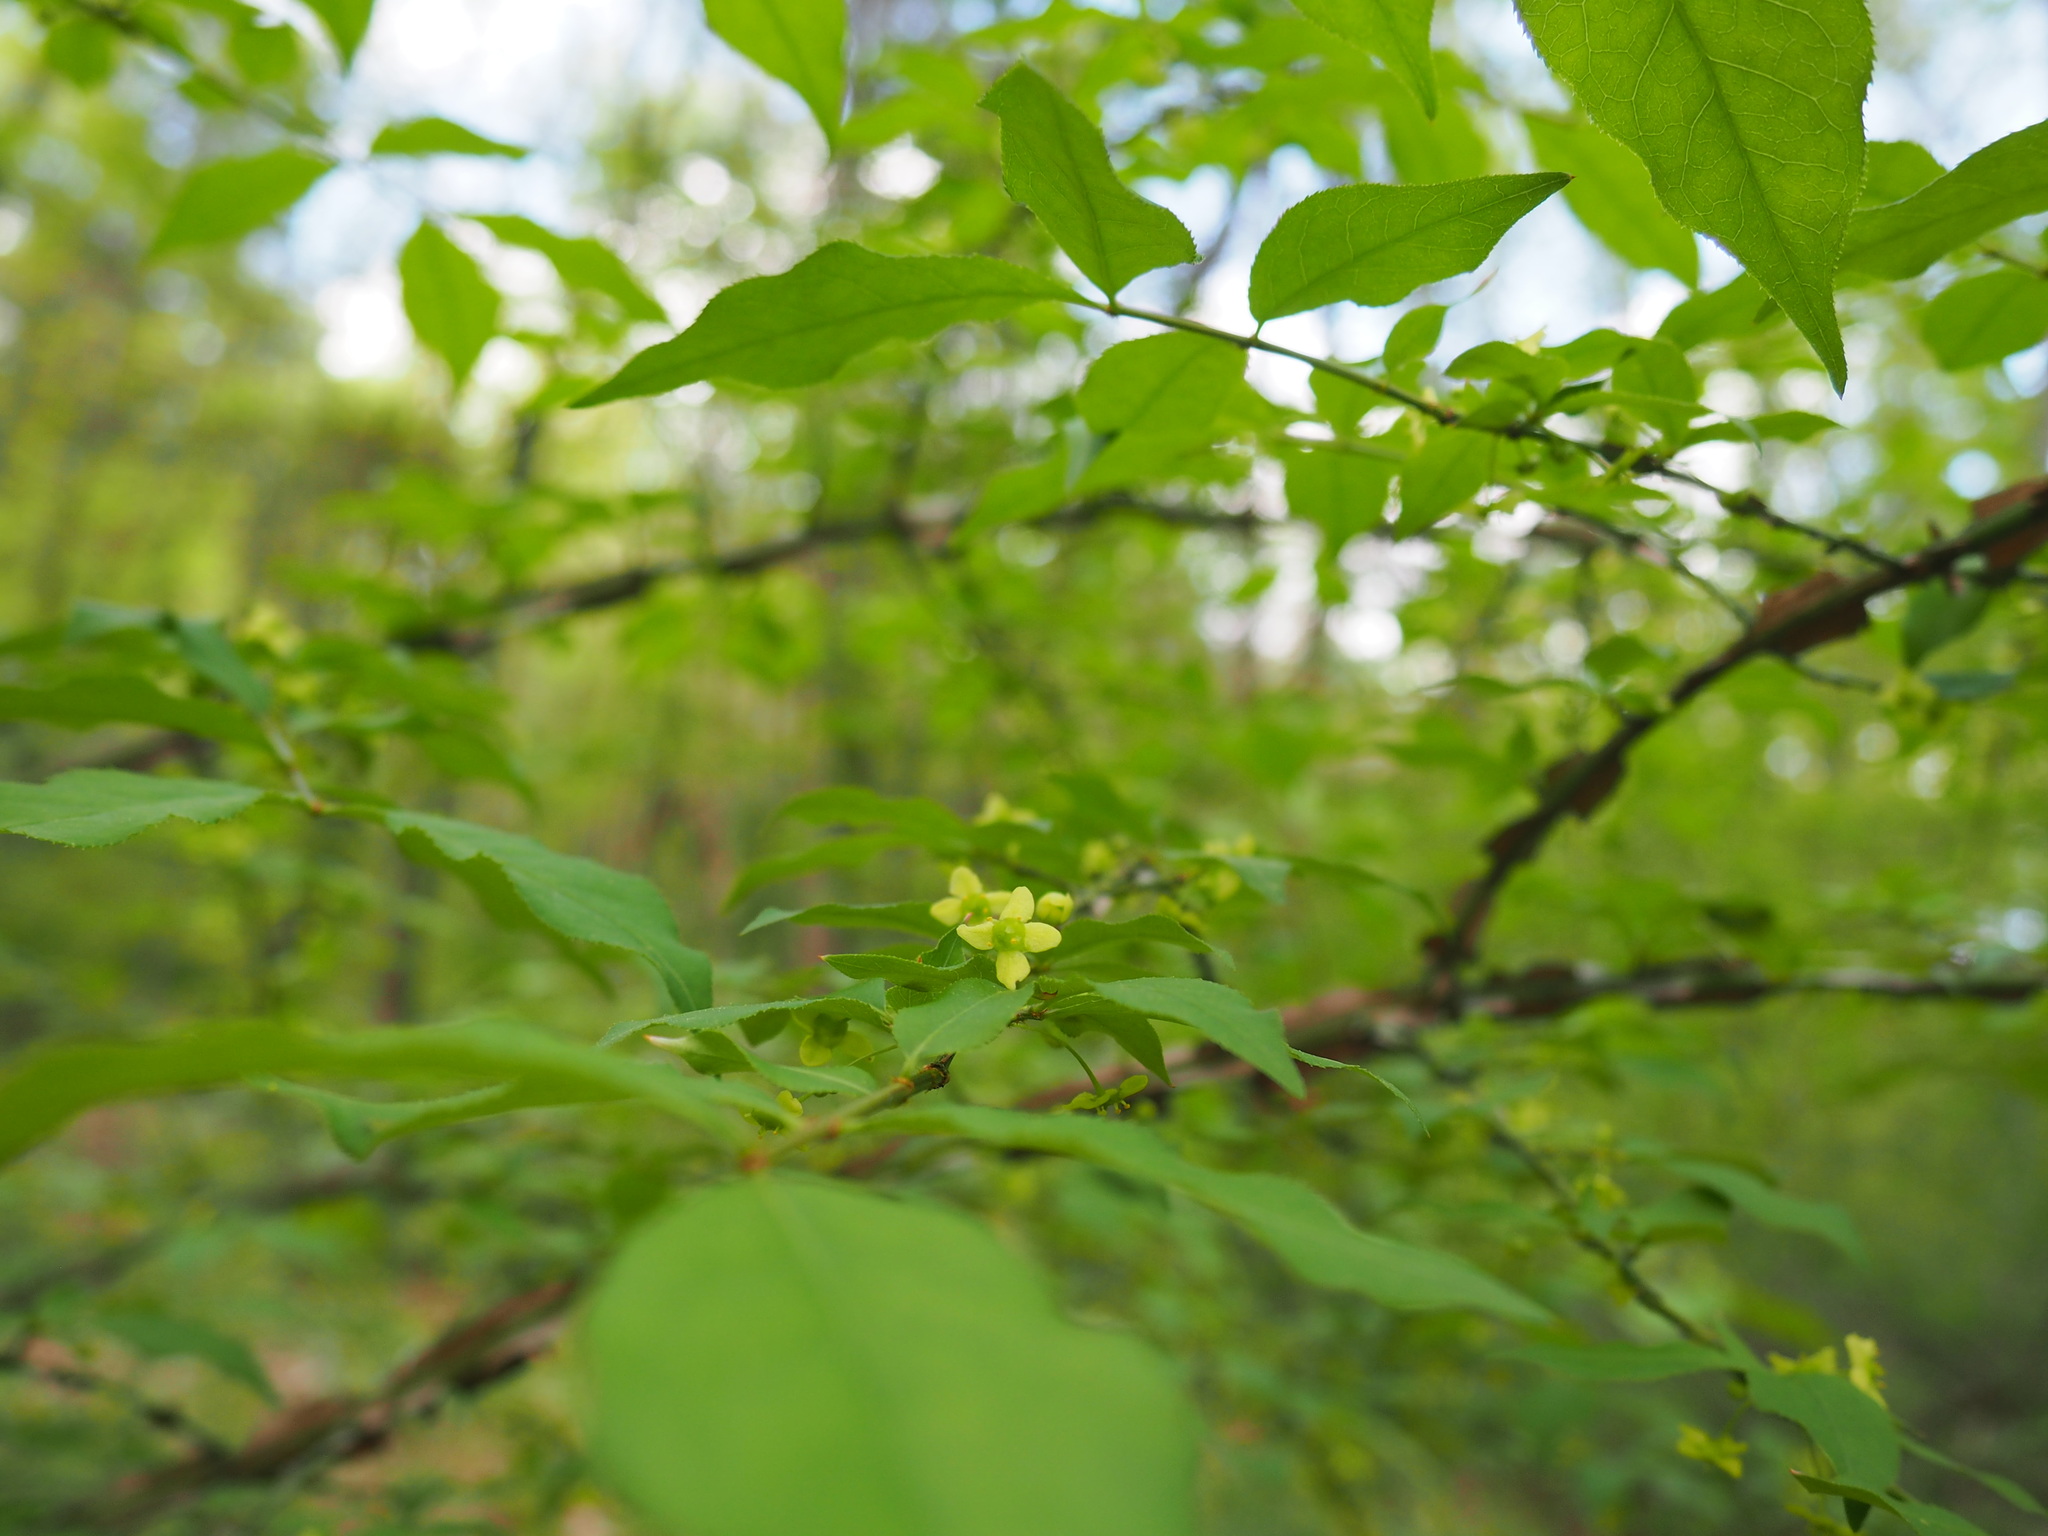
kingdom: Plantae
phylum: Tracheophyta
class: Magnoliopsida
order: Celastrales
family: Celastraceae
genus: Euonymus
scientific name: Euonymus alatus
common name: Winged euonymus
